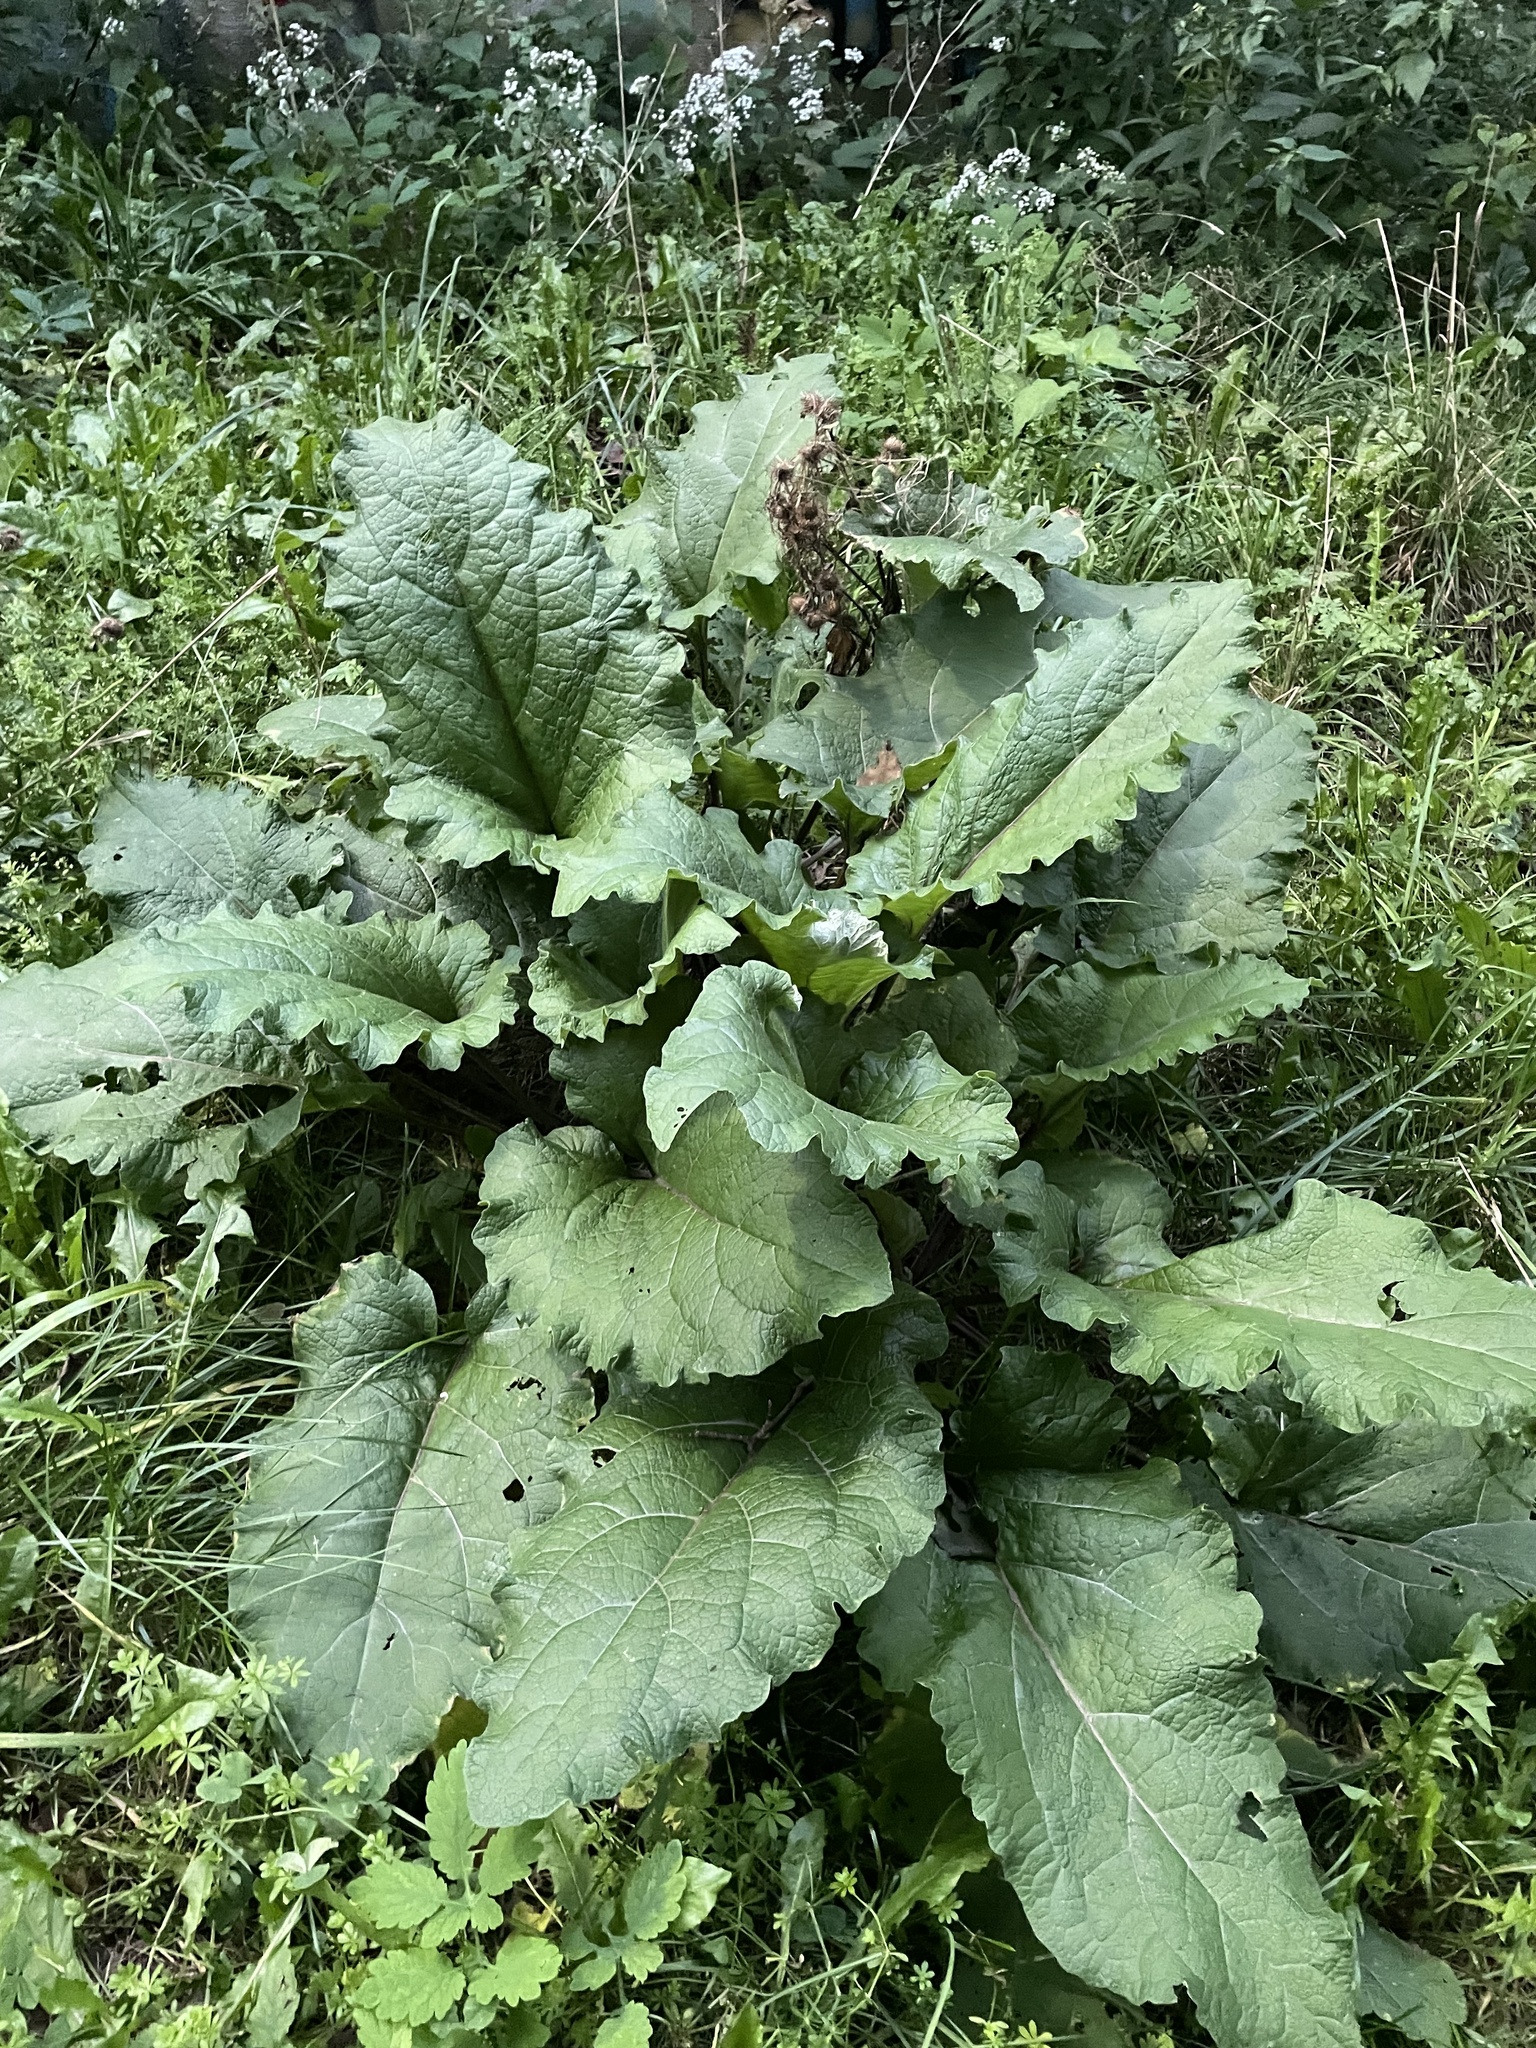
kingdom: Plantae
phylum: Tracheophyta
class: Magnoliopsida
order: Asterales
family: Asteraceae
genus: Arctium
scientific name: Arctium
